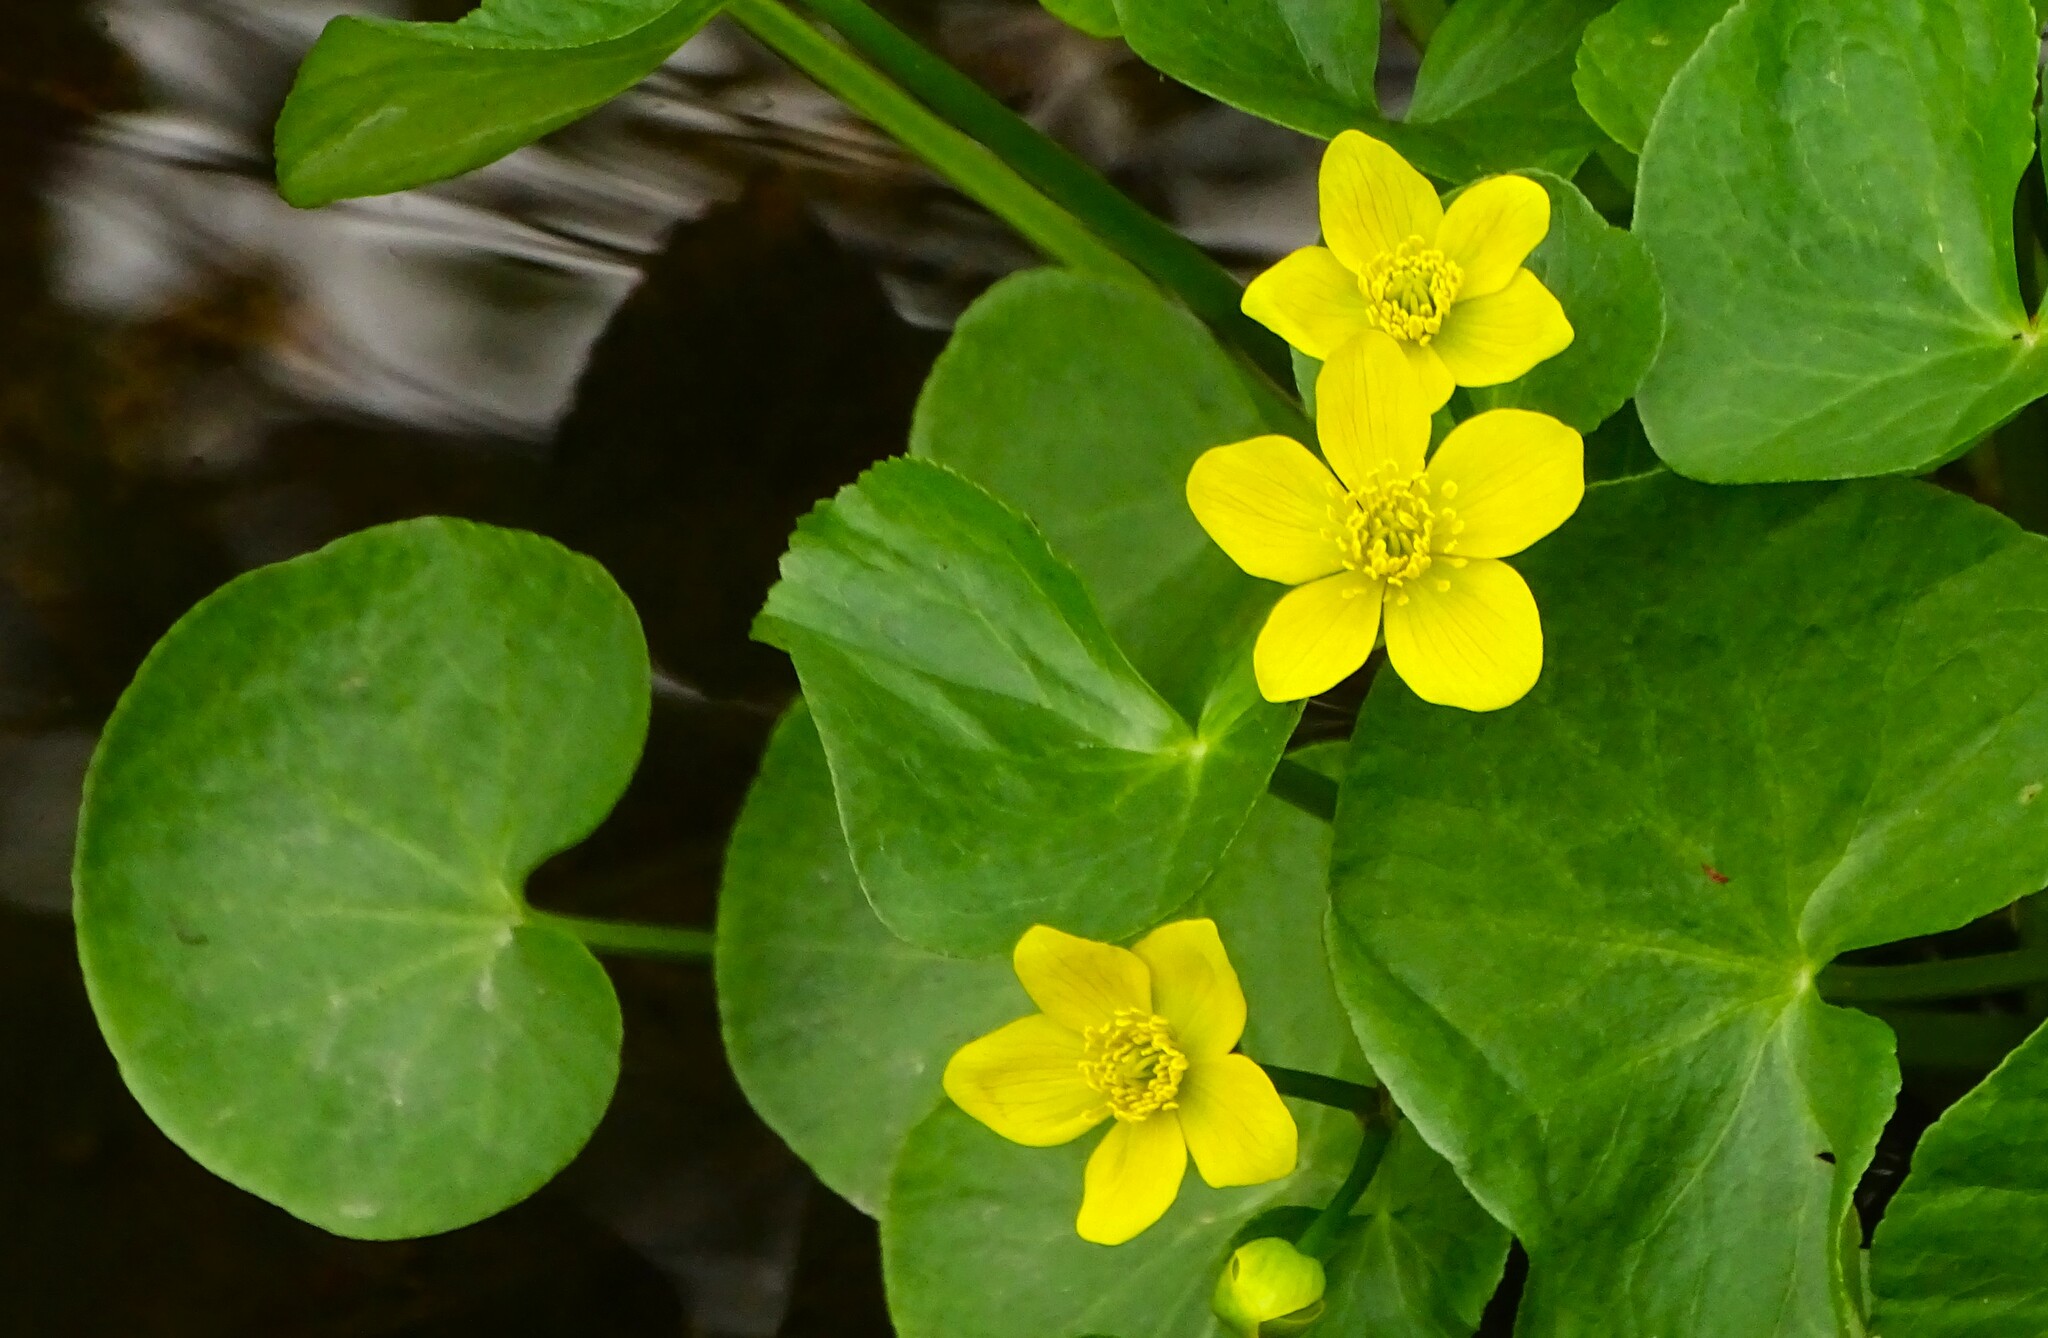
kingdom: Plantae
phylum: Tracheophyta
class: Magnoliopsida
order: Ranunculales
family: Ranunculaceae
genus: Caltha
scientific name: Caltha palustris
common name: Marsh marigold
